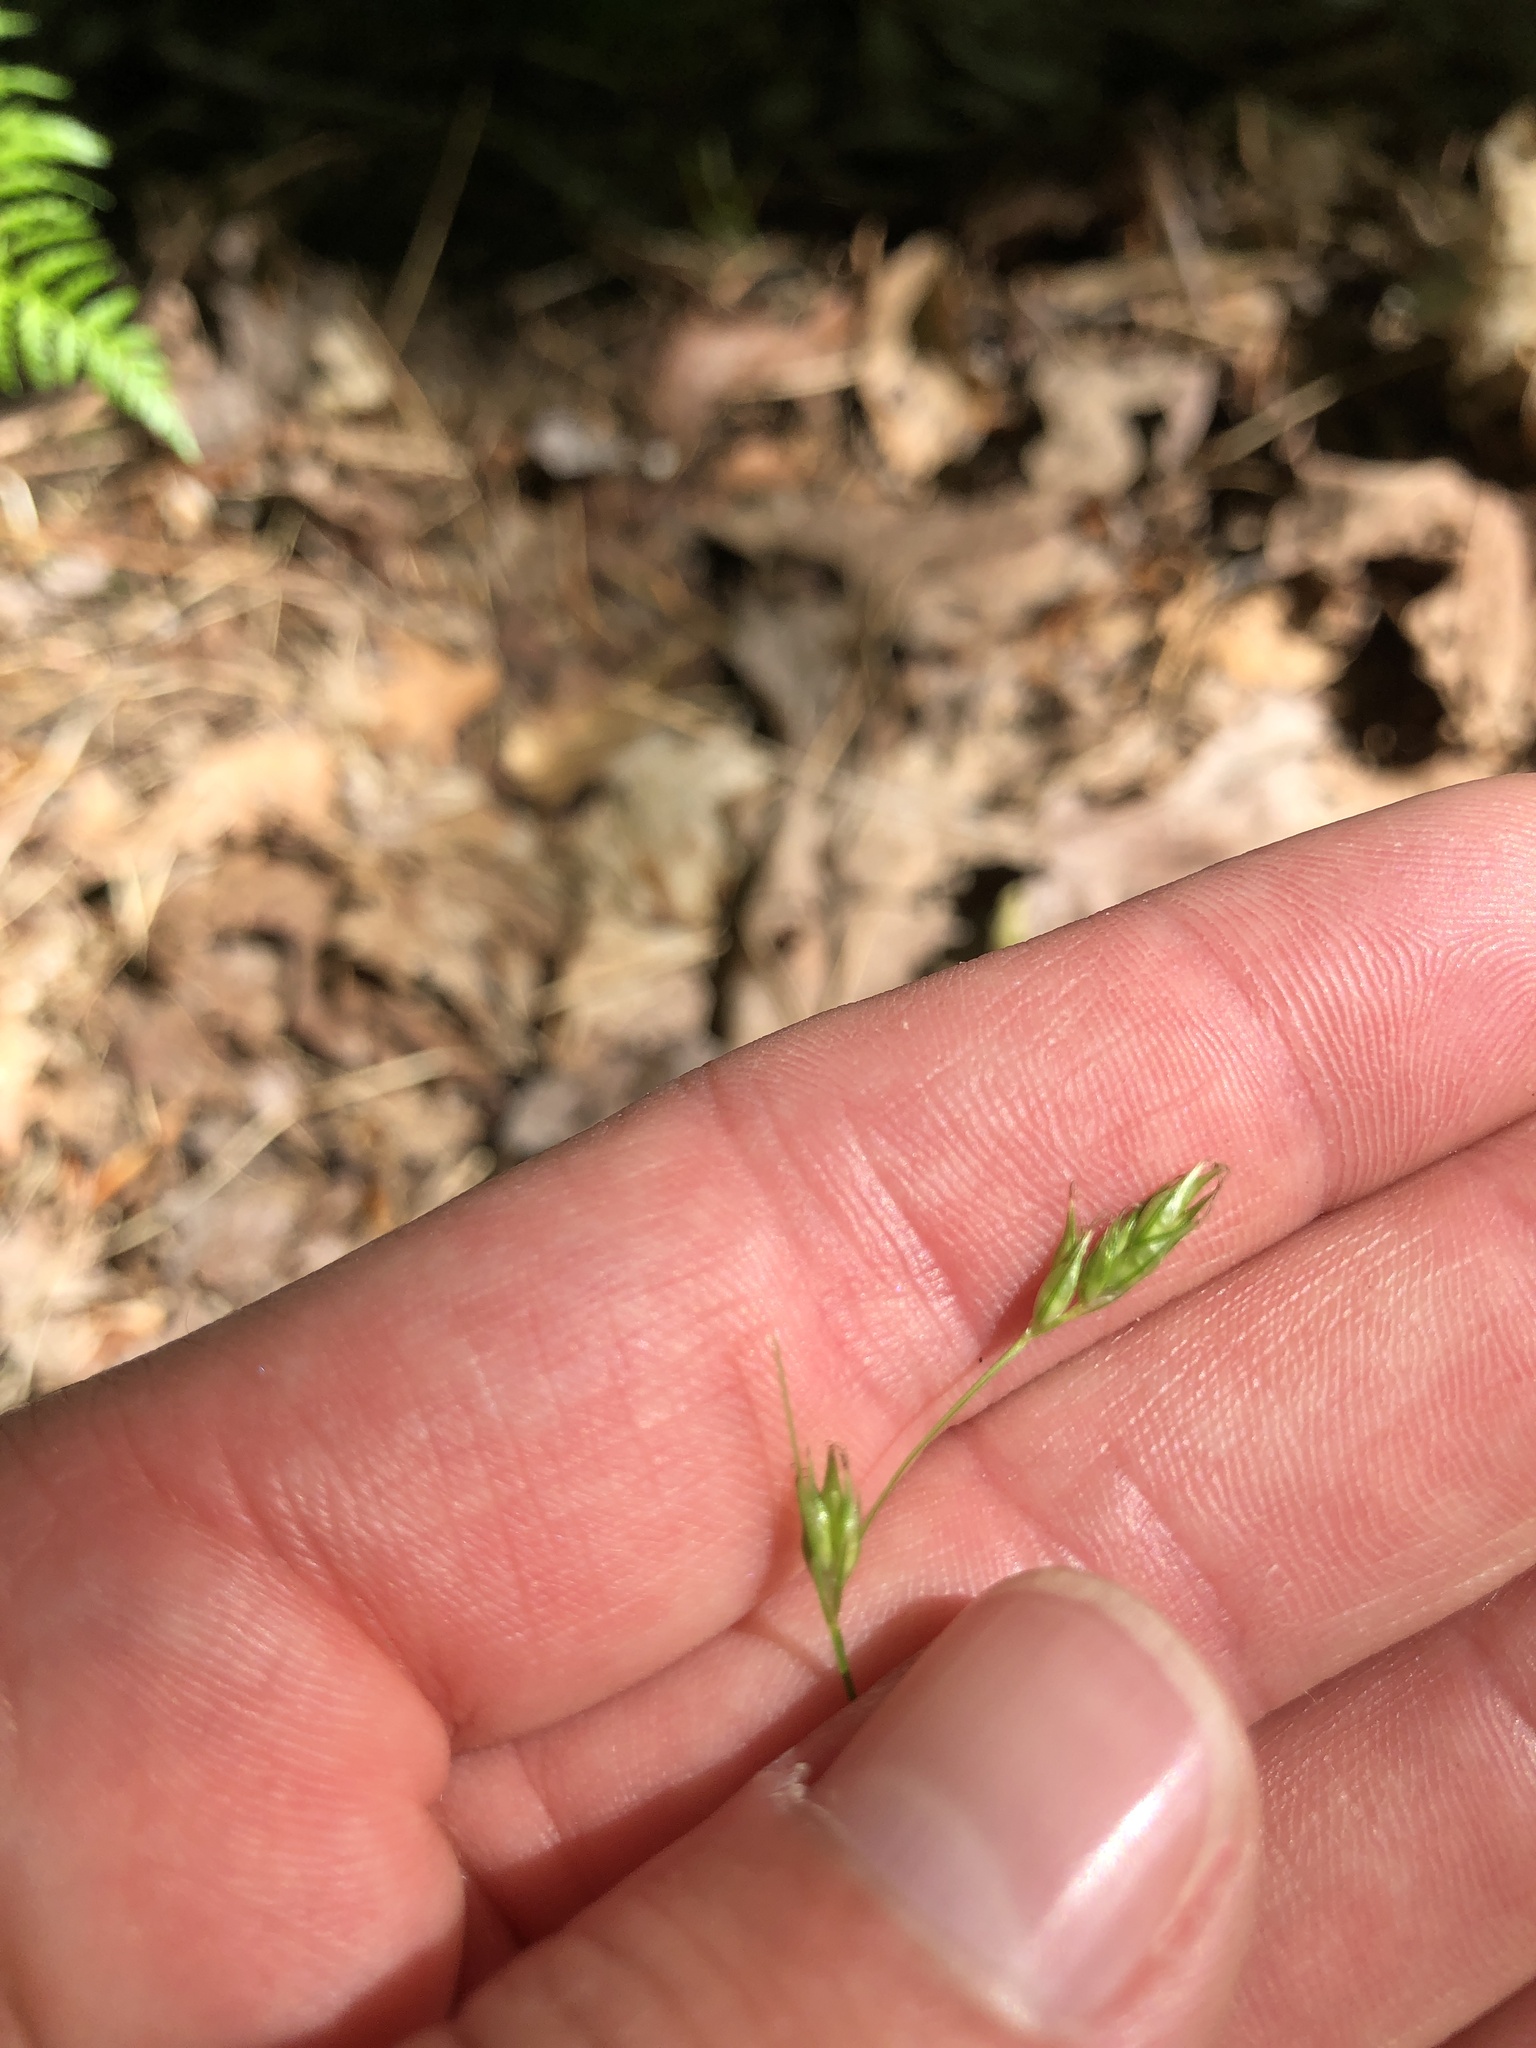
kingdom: Plantae
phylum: Tracheophyta
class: Liliopsida
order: Poales
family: Cyperaceae
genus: Carex
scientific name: Carex deweyana
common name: Dewey's sedge
